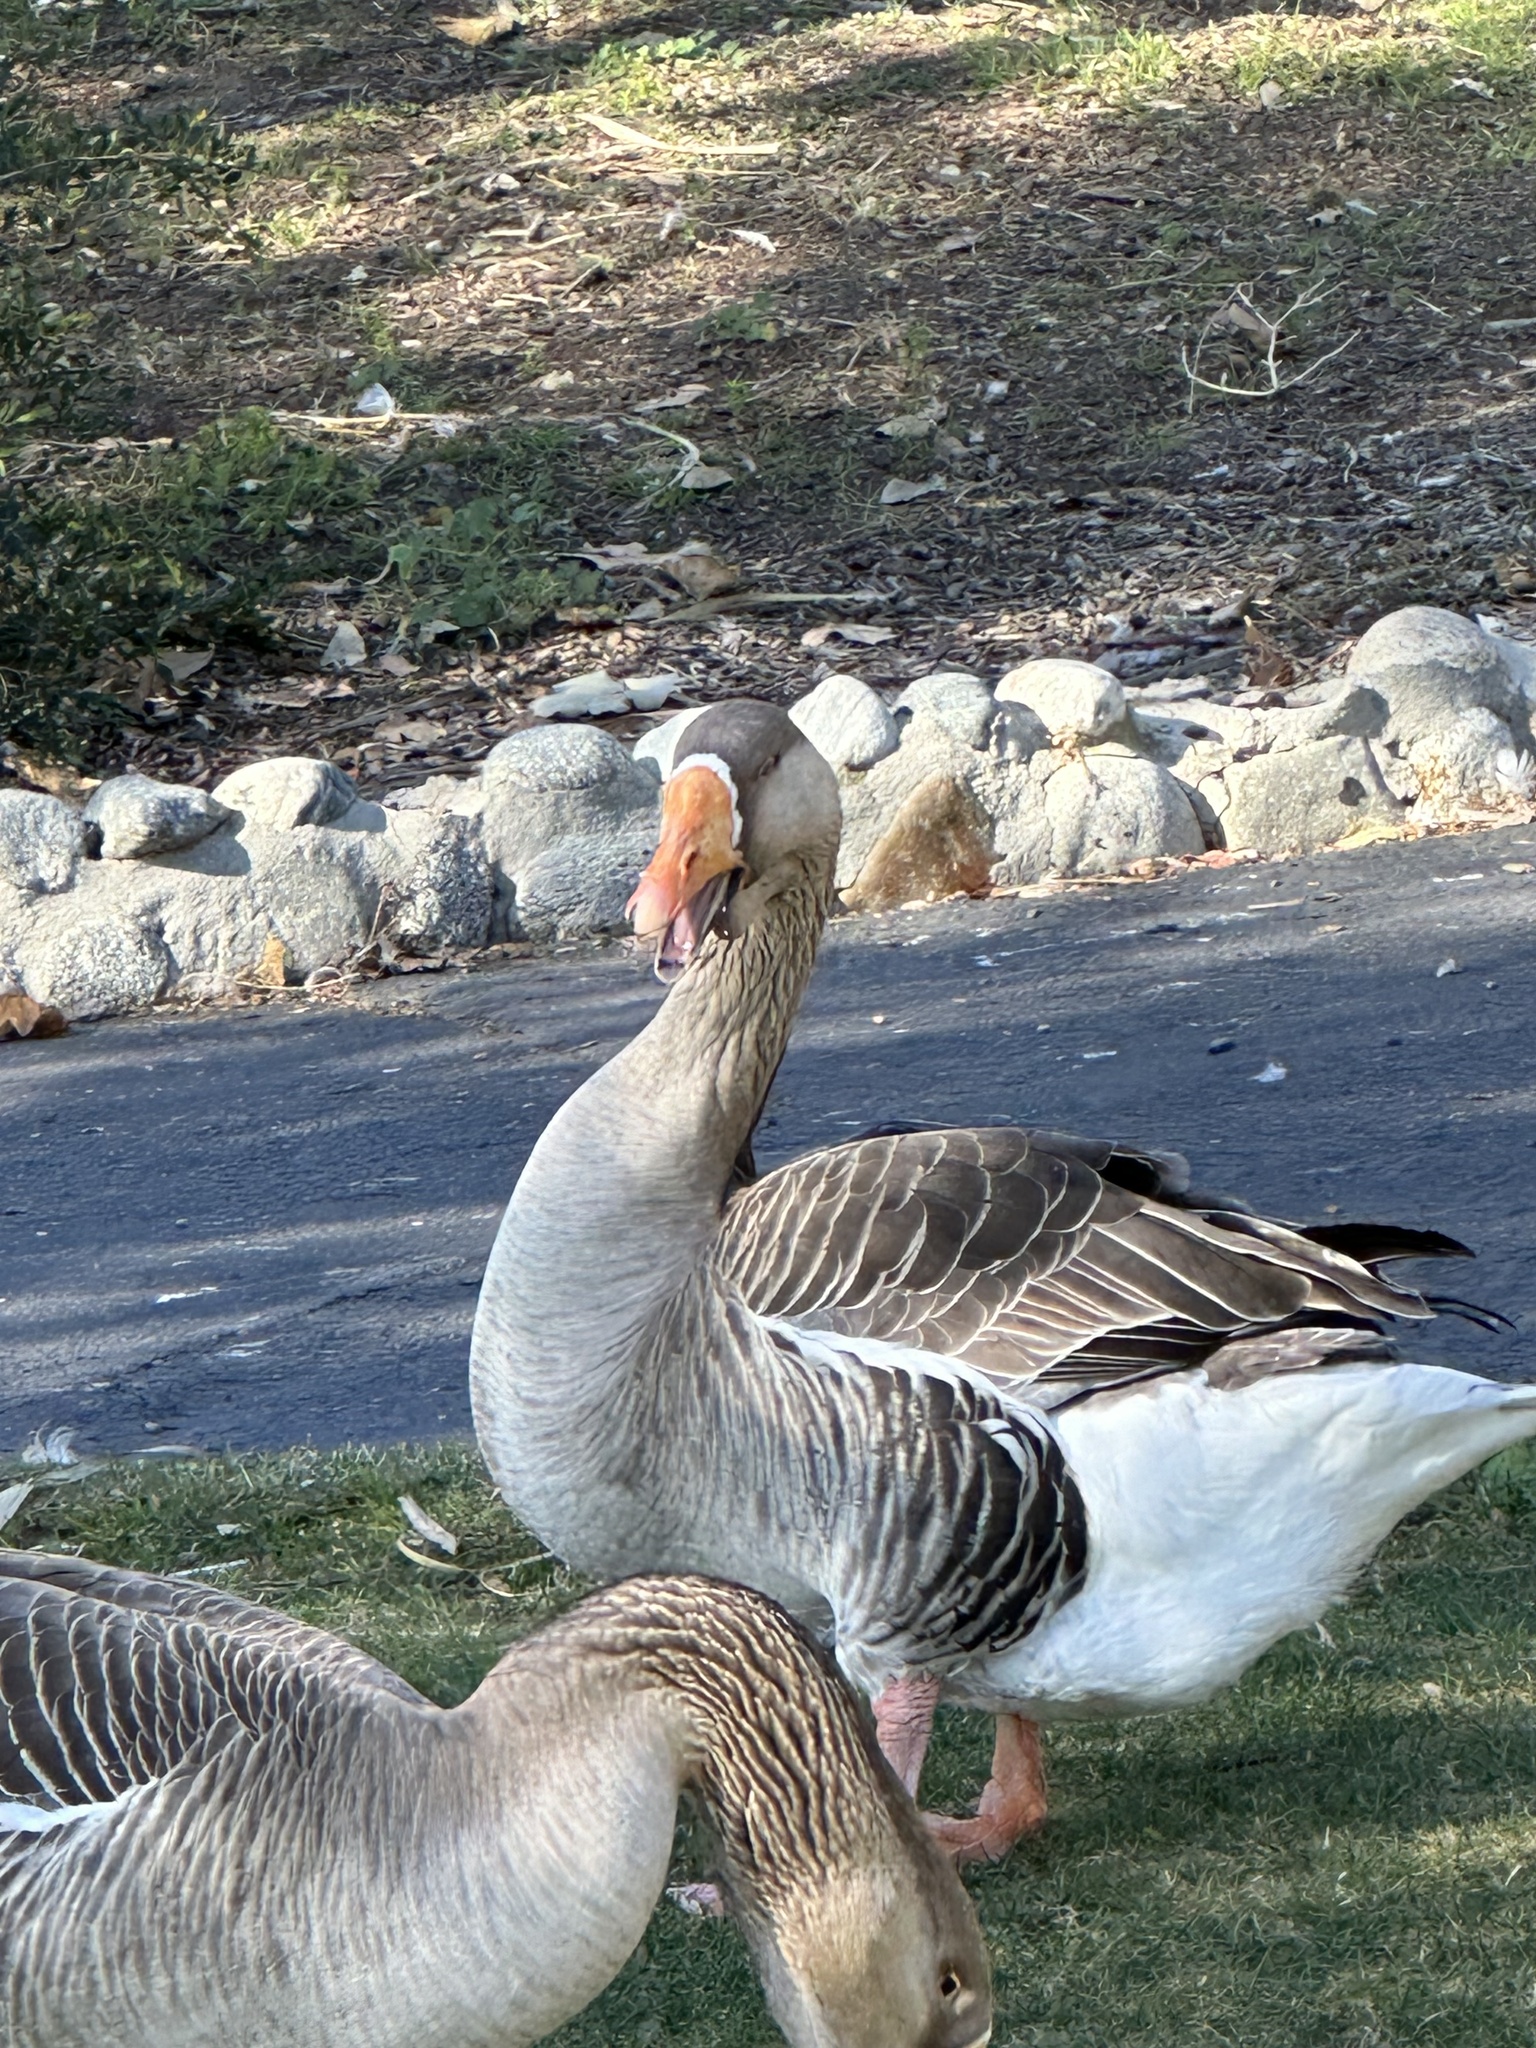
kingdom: Animalia
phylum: Chordata
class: Aves
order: Anseriformes
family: Anatidae
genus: Anser
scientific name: Anser
